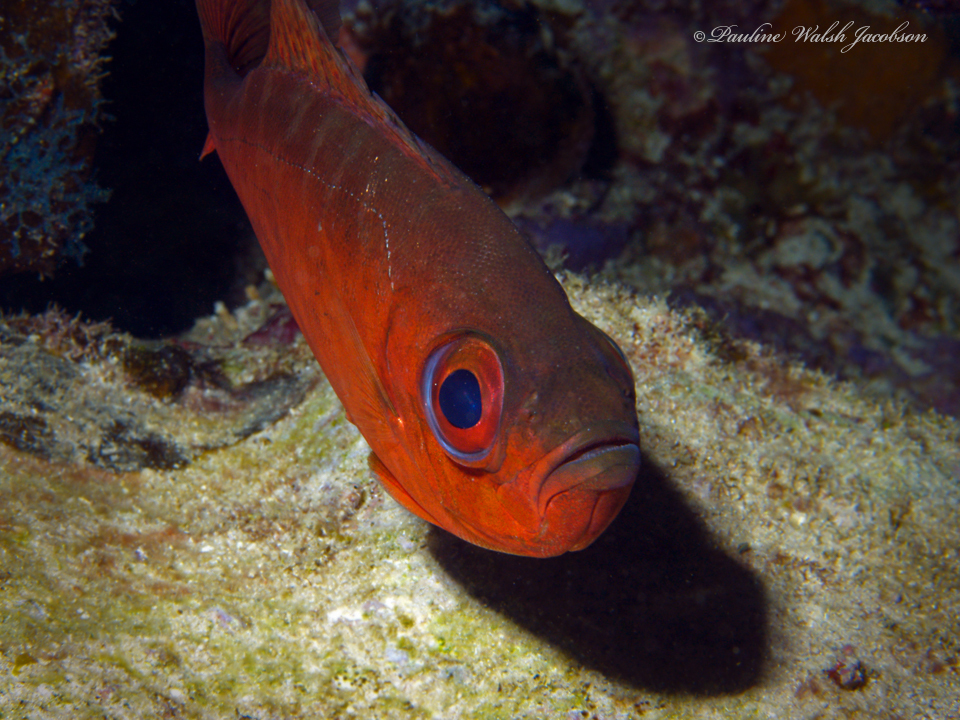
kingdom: Animalia
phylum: Chordata
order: Perciformes
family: Priacanthidae
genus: Heteropriacanthus
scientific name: Heteropriacanthus cruentatus
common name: Glasseye
